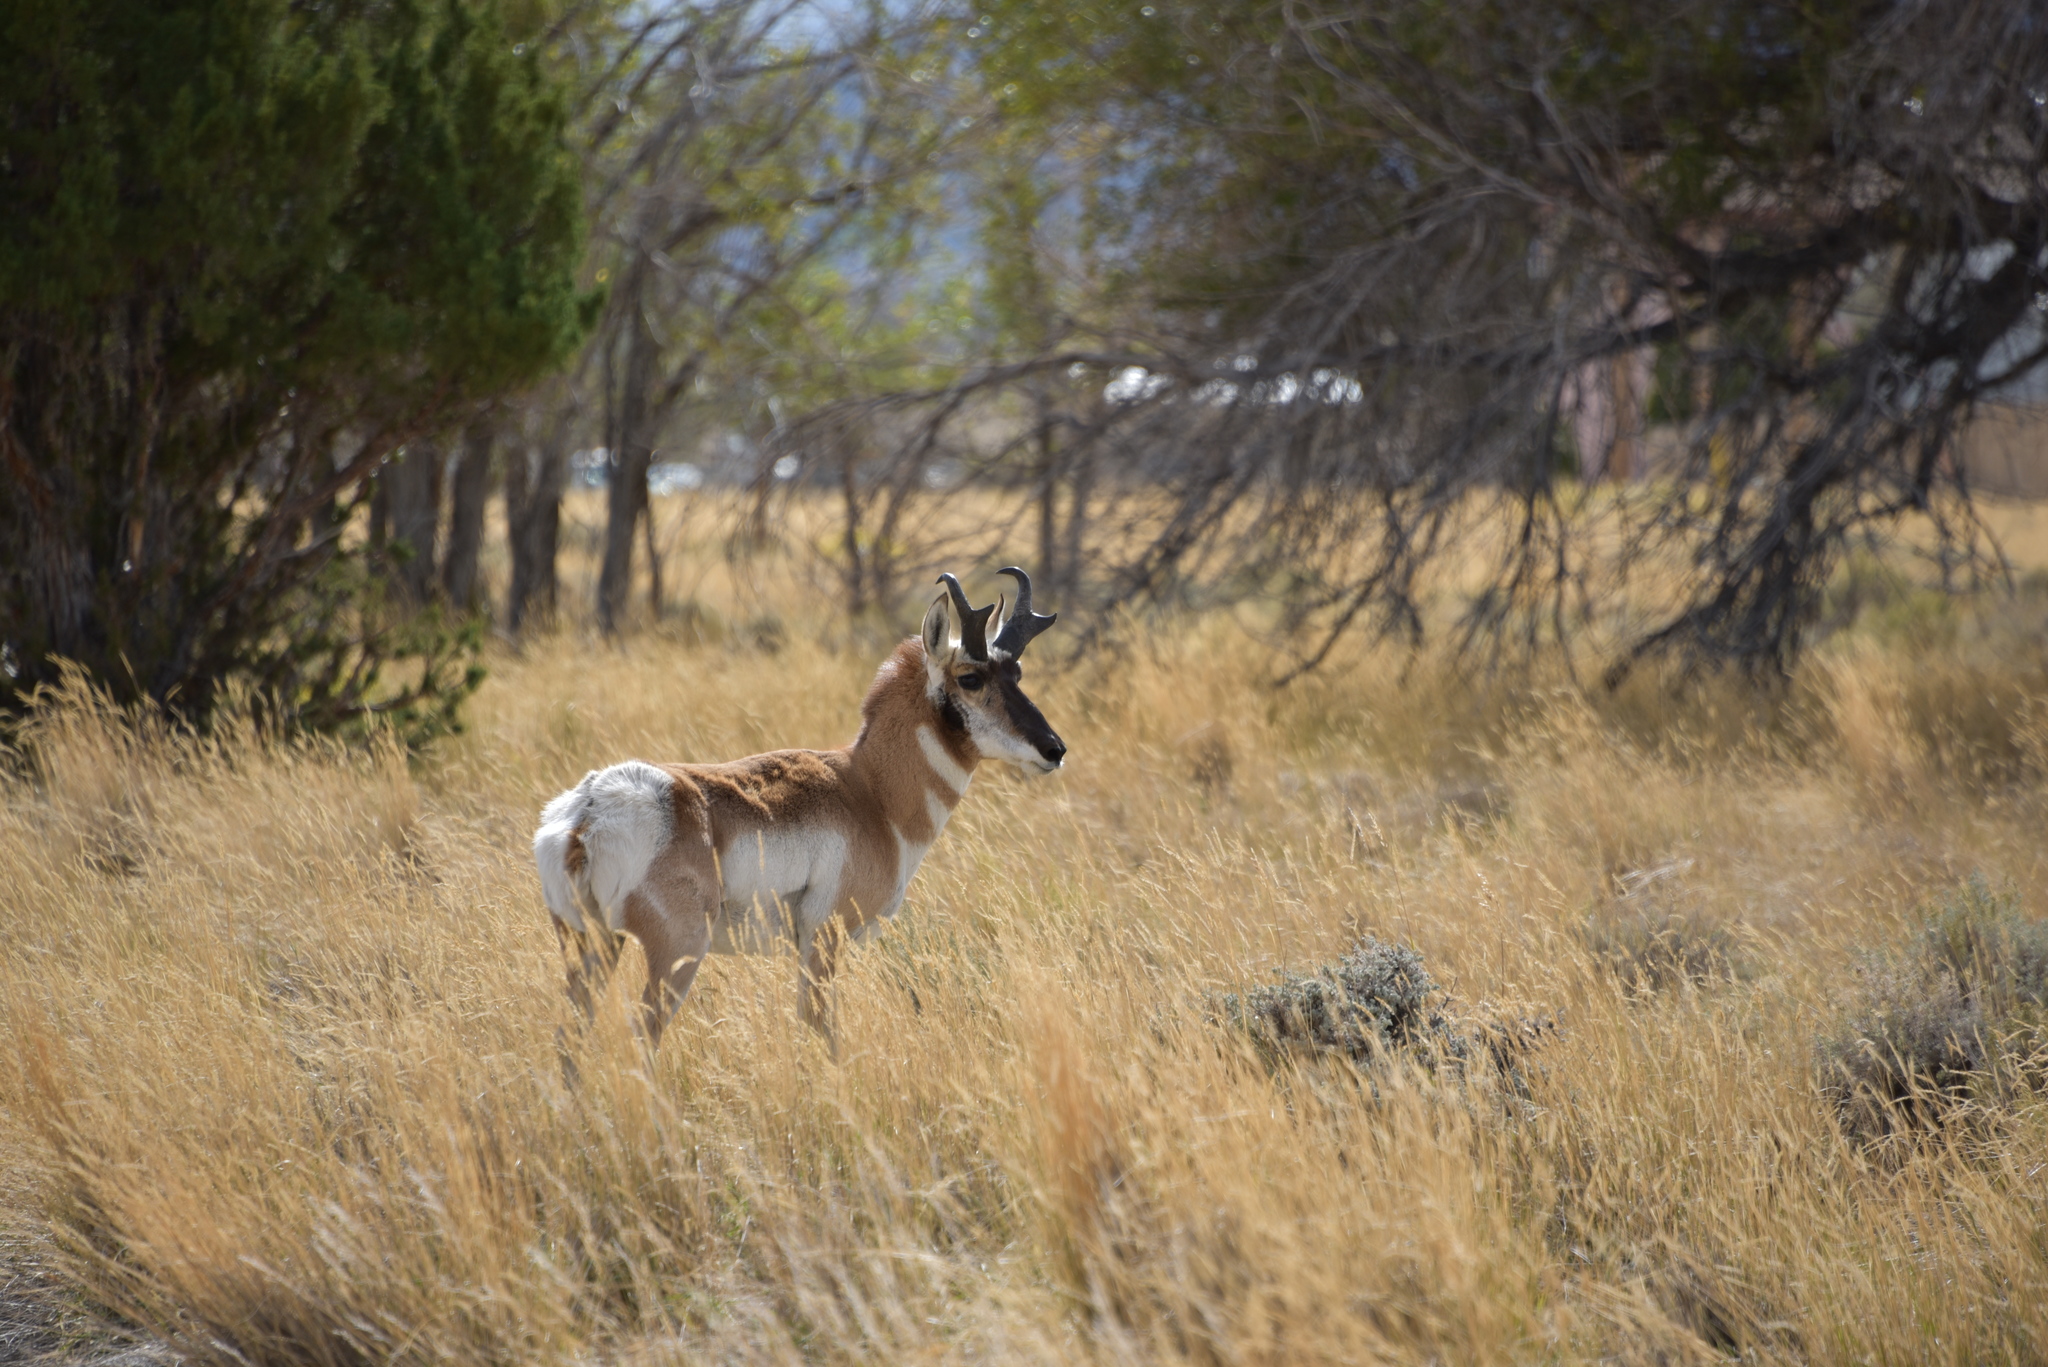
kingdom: Animalia
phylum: Chordata
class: Mammalia
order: Artiodactyla
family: Antilocapridae
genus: Antilocapra
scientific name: Antilocapra americana
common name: Pronghorn
